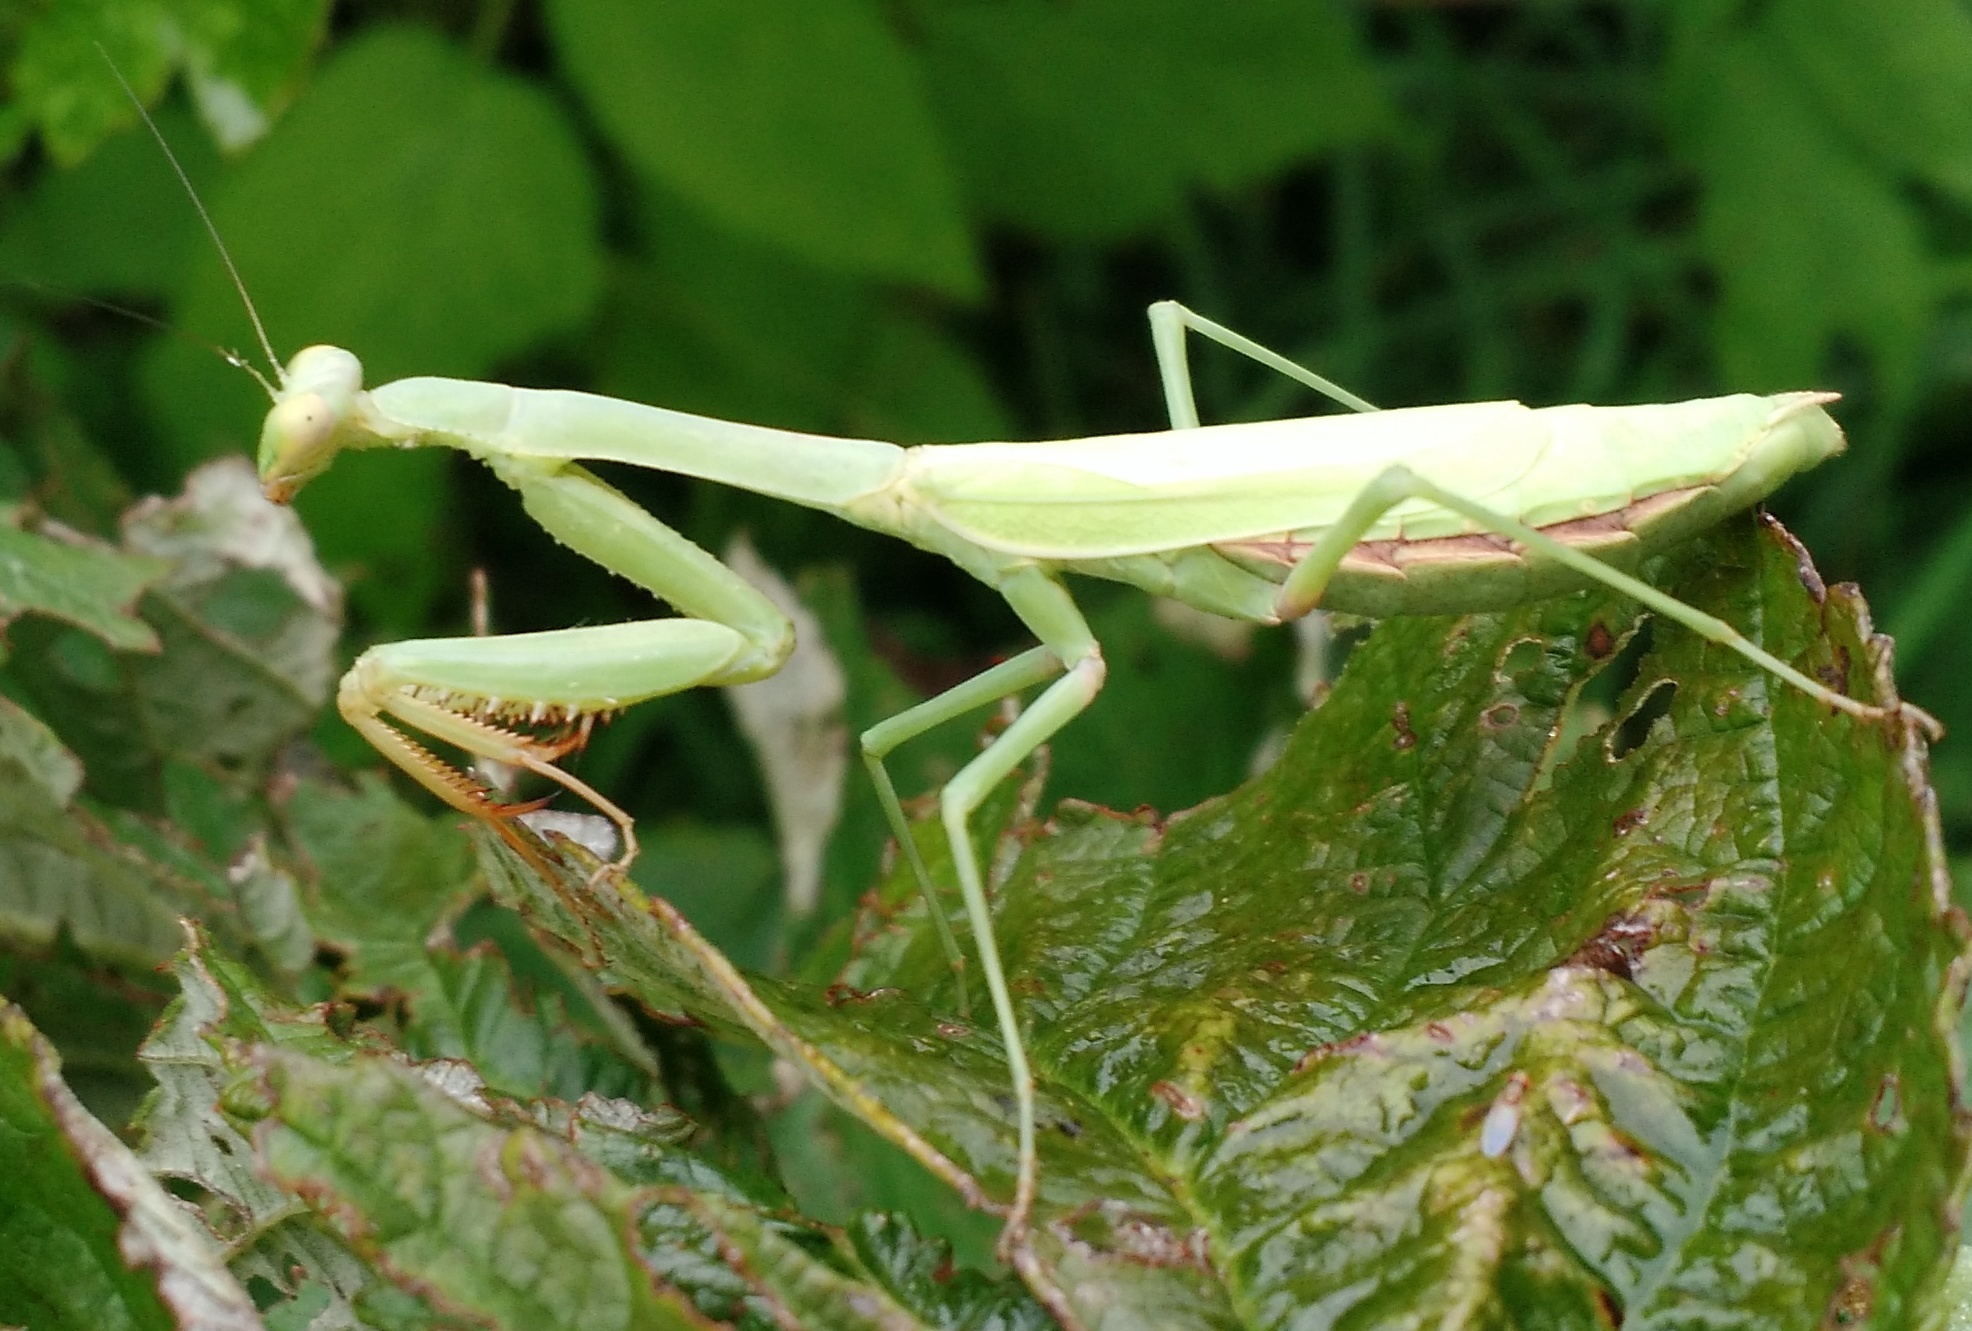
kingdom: Animalia
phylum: Arthropoda
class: Insecta
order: Mantodea
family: Mantidae
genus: Stagmomantis
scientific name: Stagmomantis carolina
